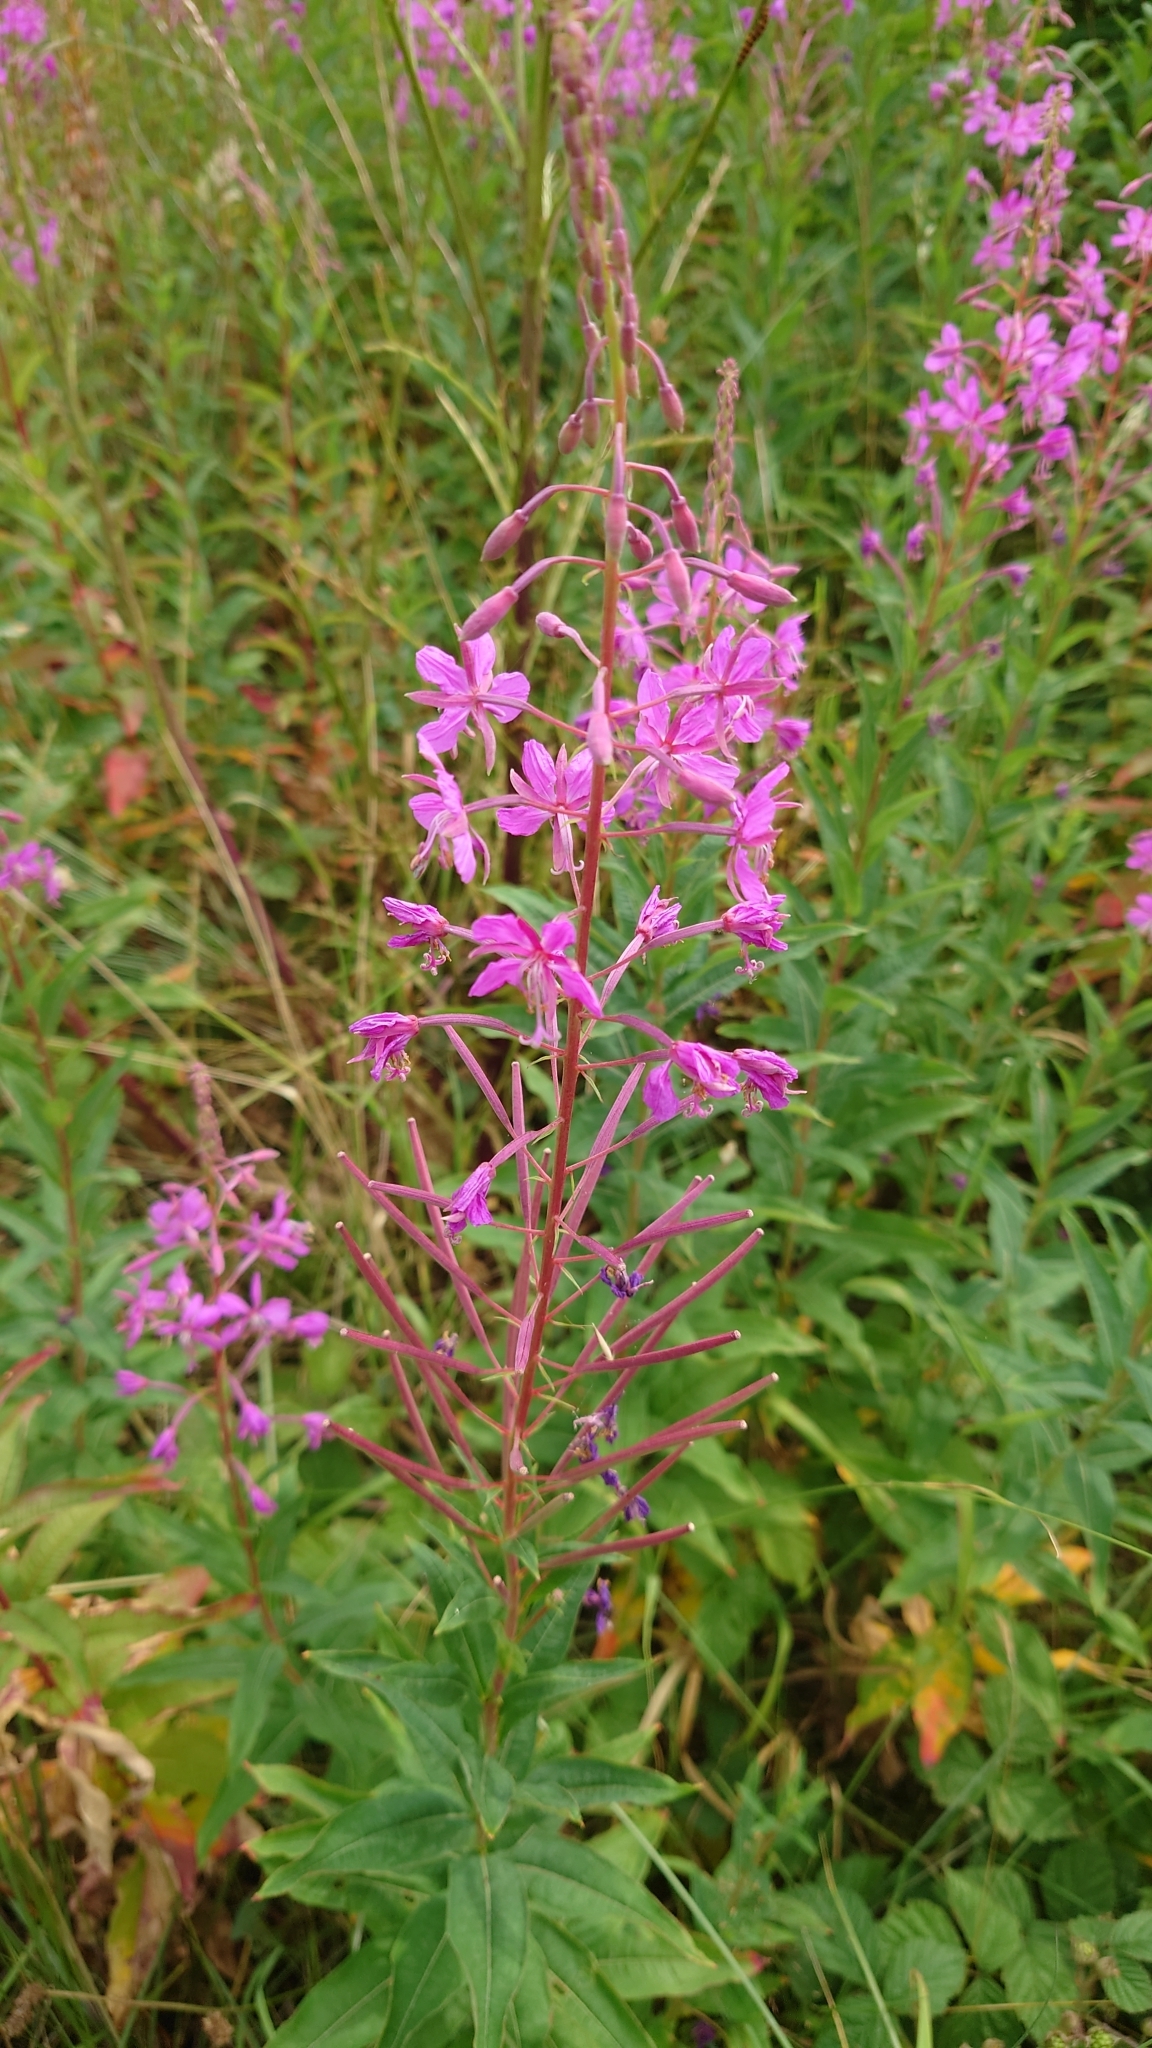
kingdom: Plantae
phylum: Tracheophyta
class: Magnoliopsida
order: Myrtales
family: Onagraceae
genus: Chamaenerion
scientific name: Chamaenerion angustifolium
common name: Fireweed
